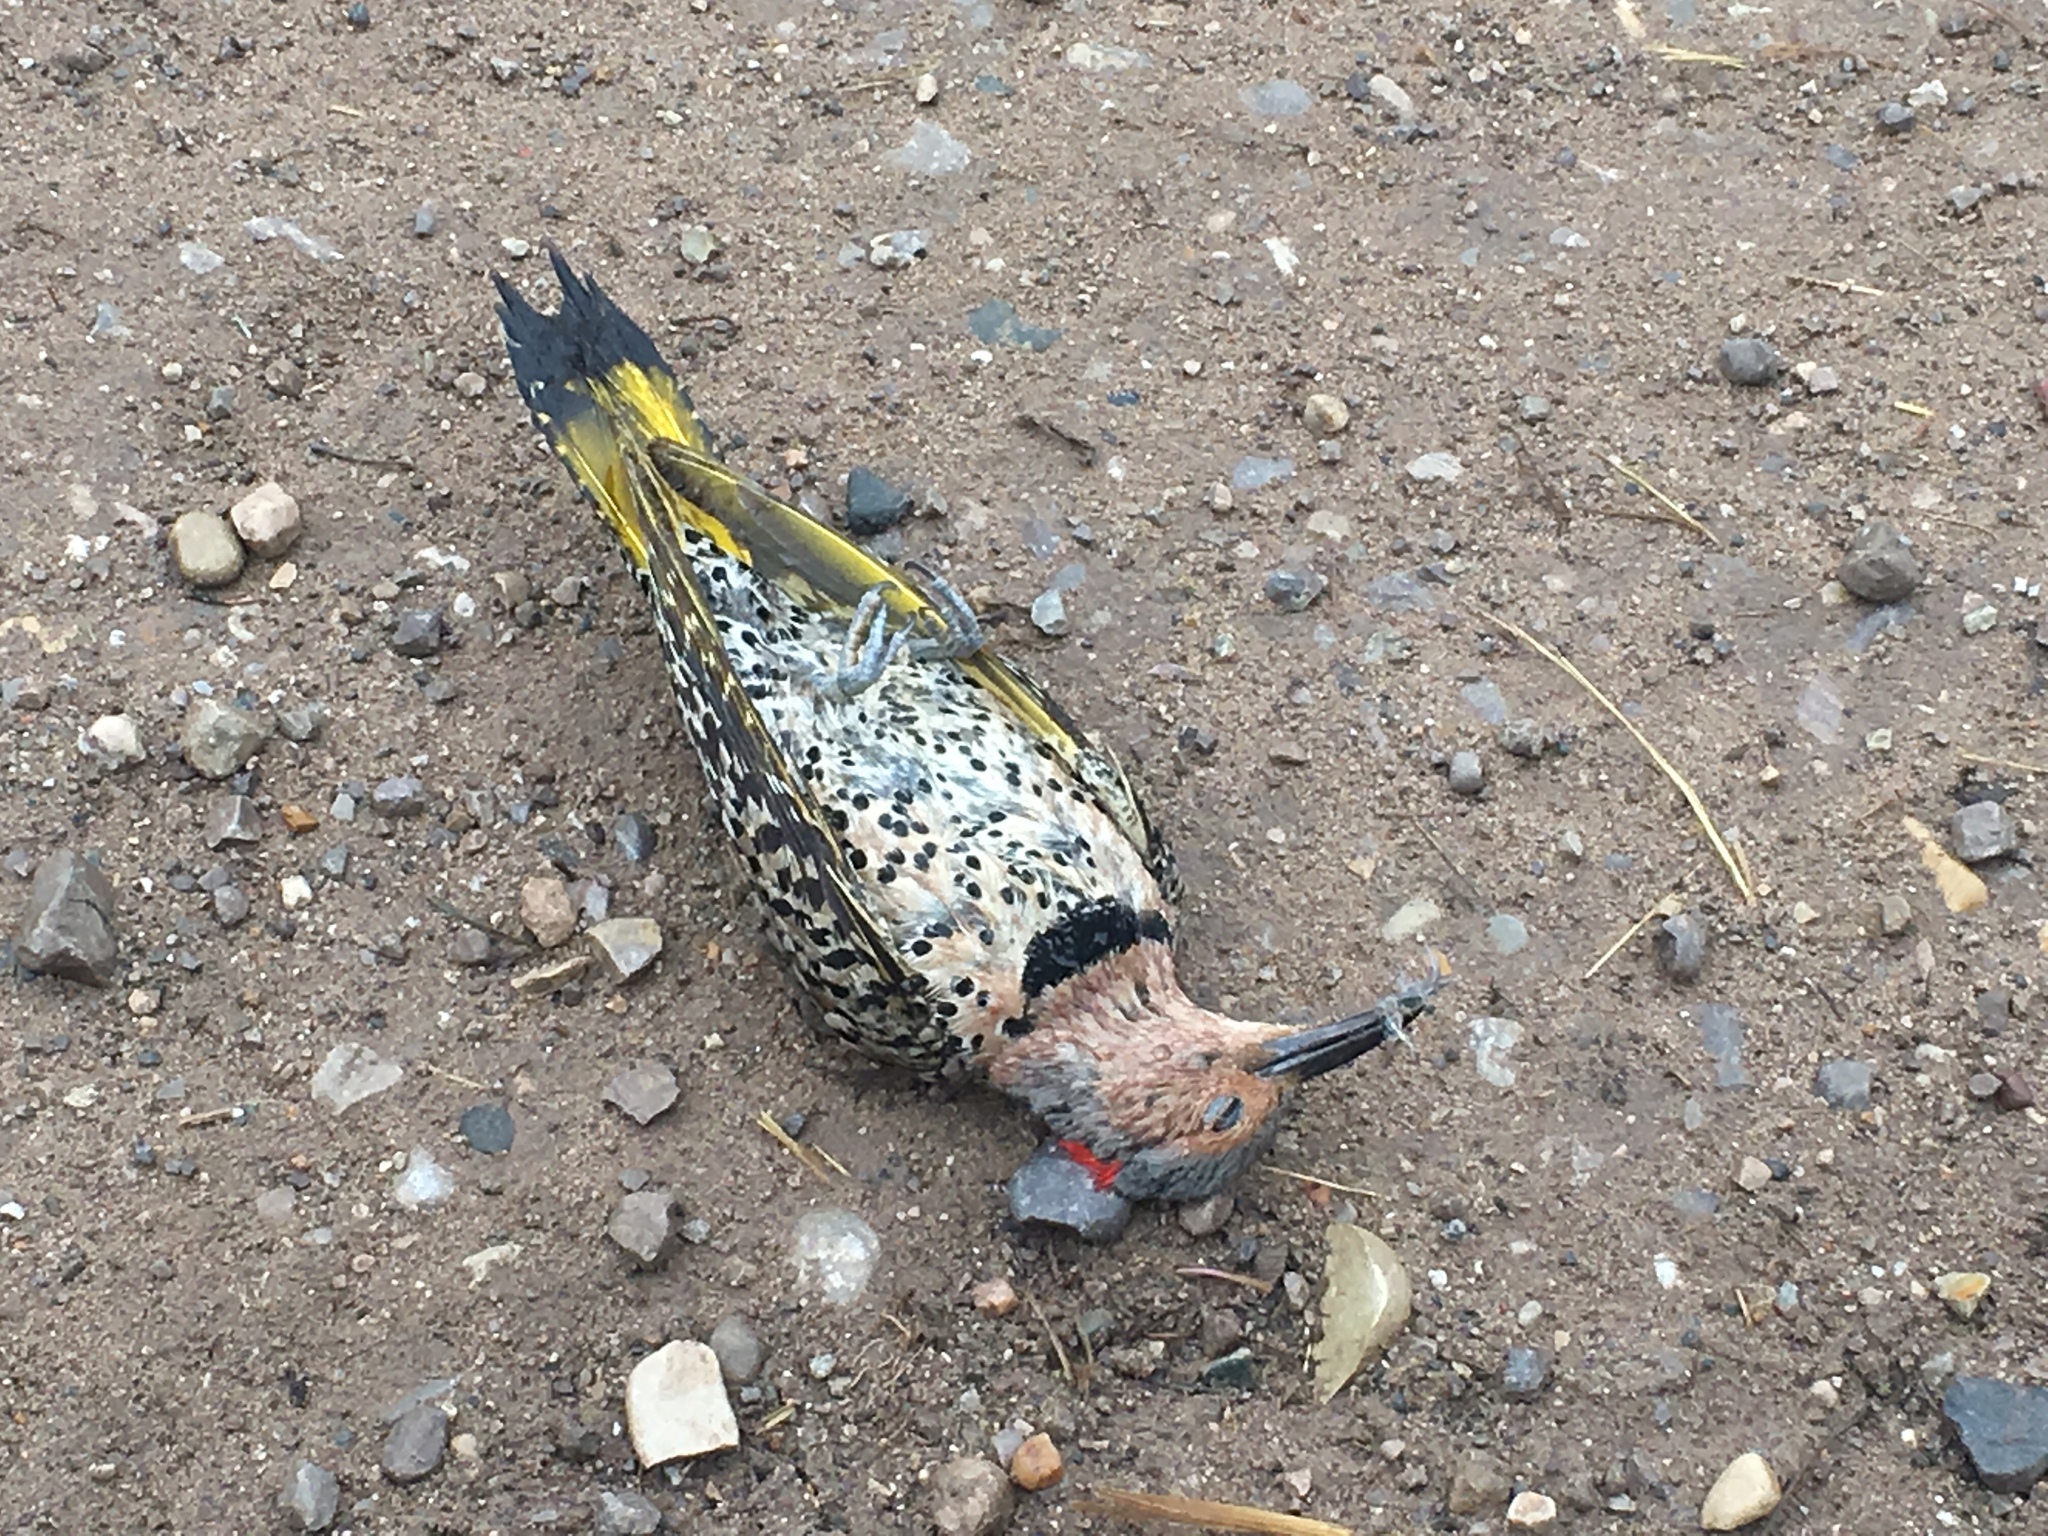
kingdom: Animalia
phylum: Chordata
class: Aves
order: Piciformes
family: Picidae
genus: Colaptes
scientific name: Colaptes auratus
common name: Northern flicker
